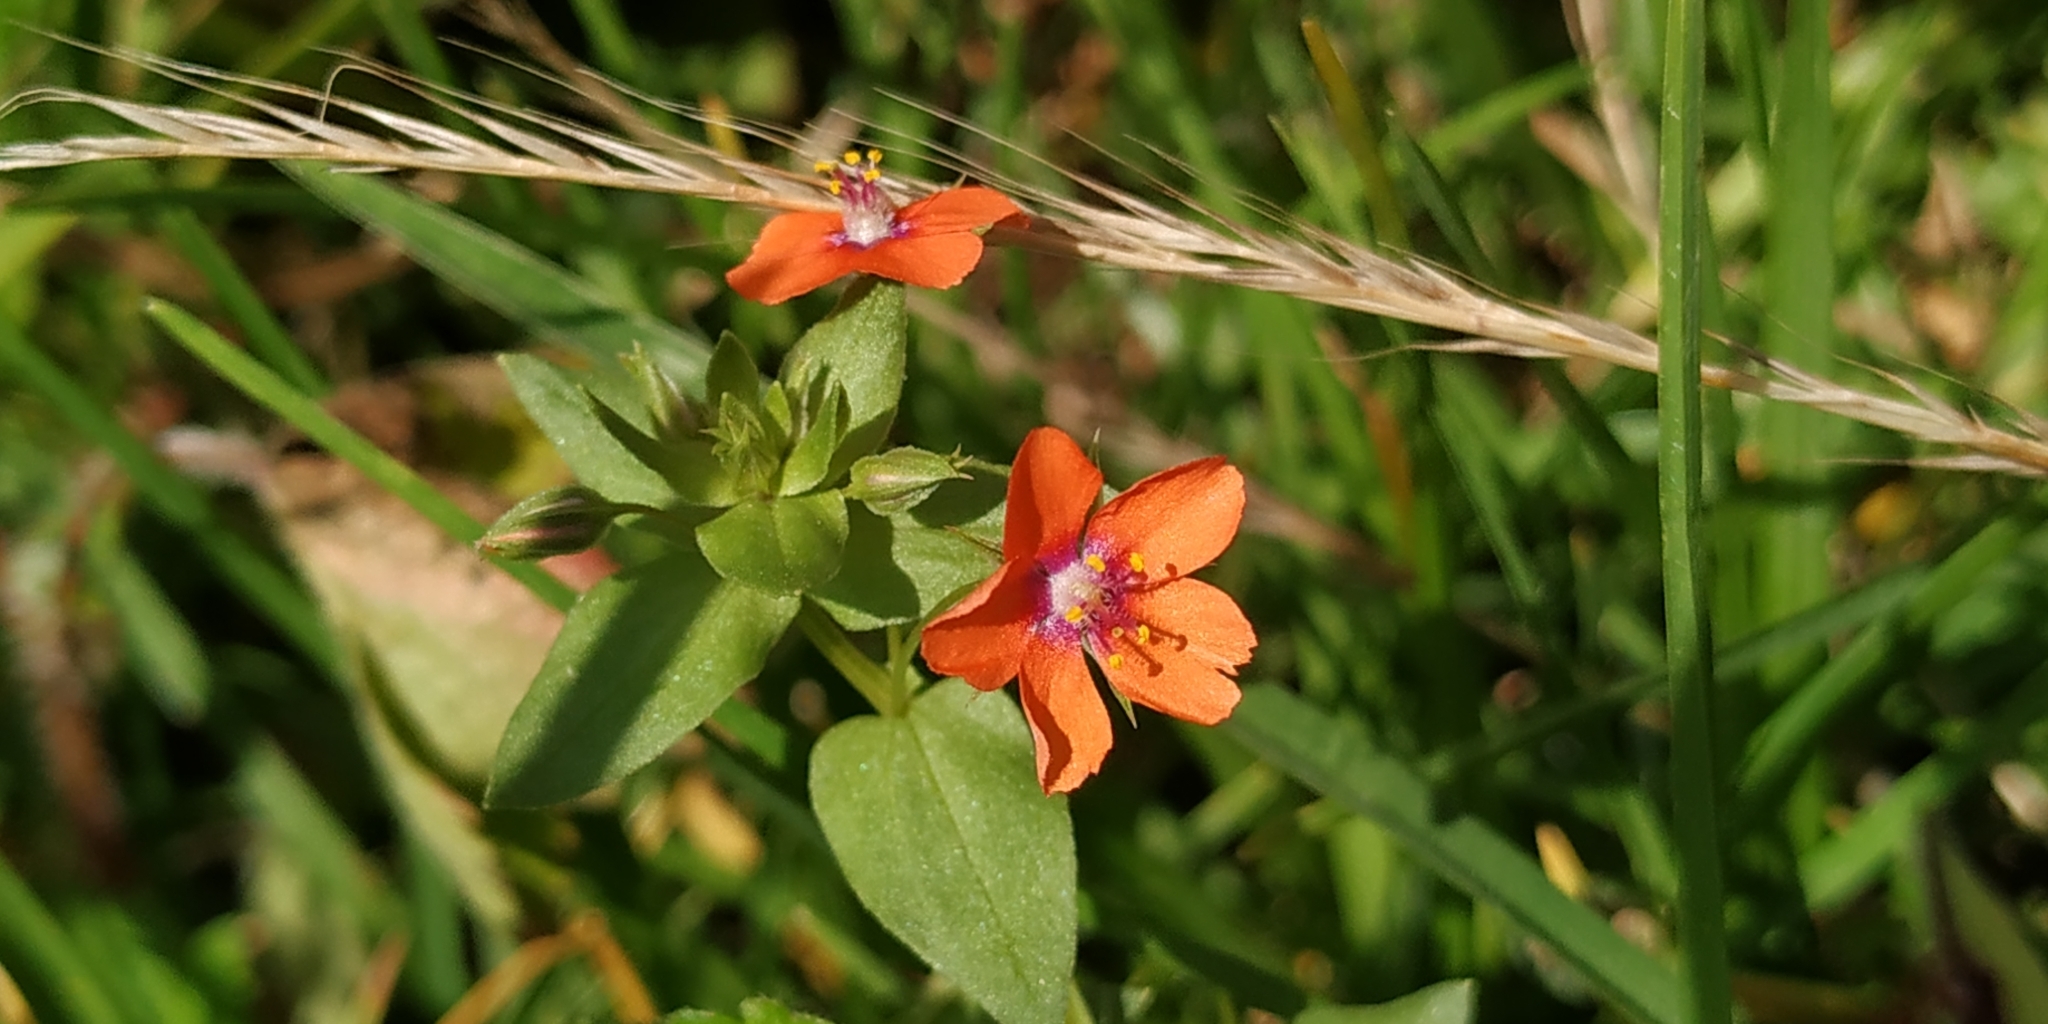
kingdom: Plantae
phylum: Tracheophyta
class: Magnoliopsida
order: Ericales
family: Primulaceae
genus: Lysimachia
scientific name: Lysimachia arvensis
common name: Scarlet pimpernel
